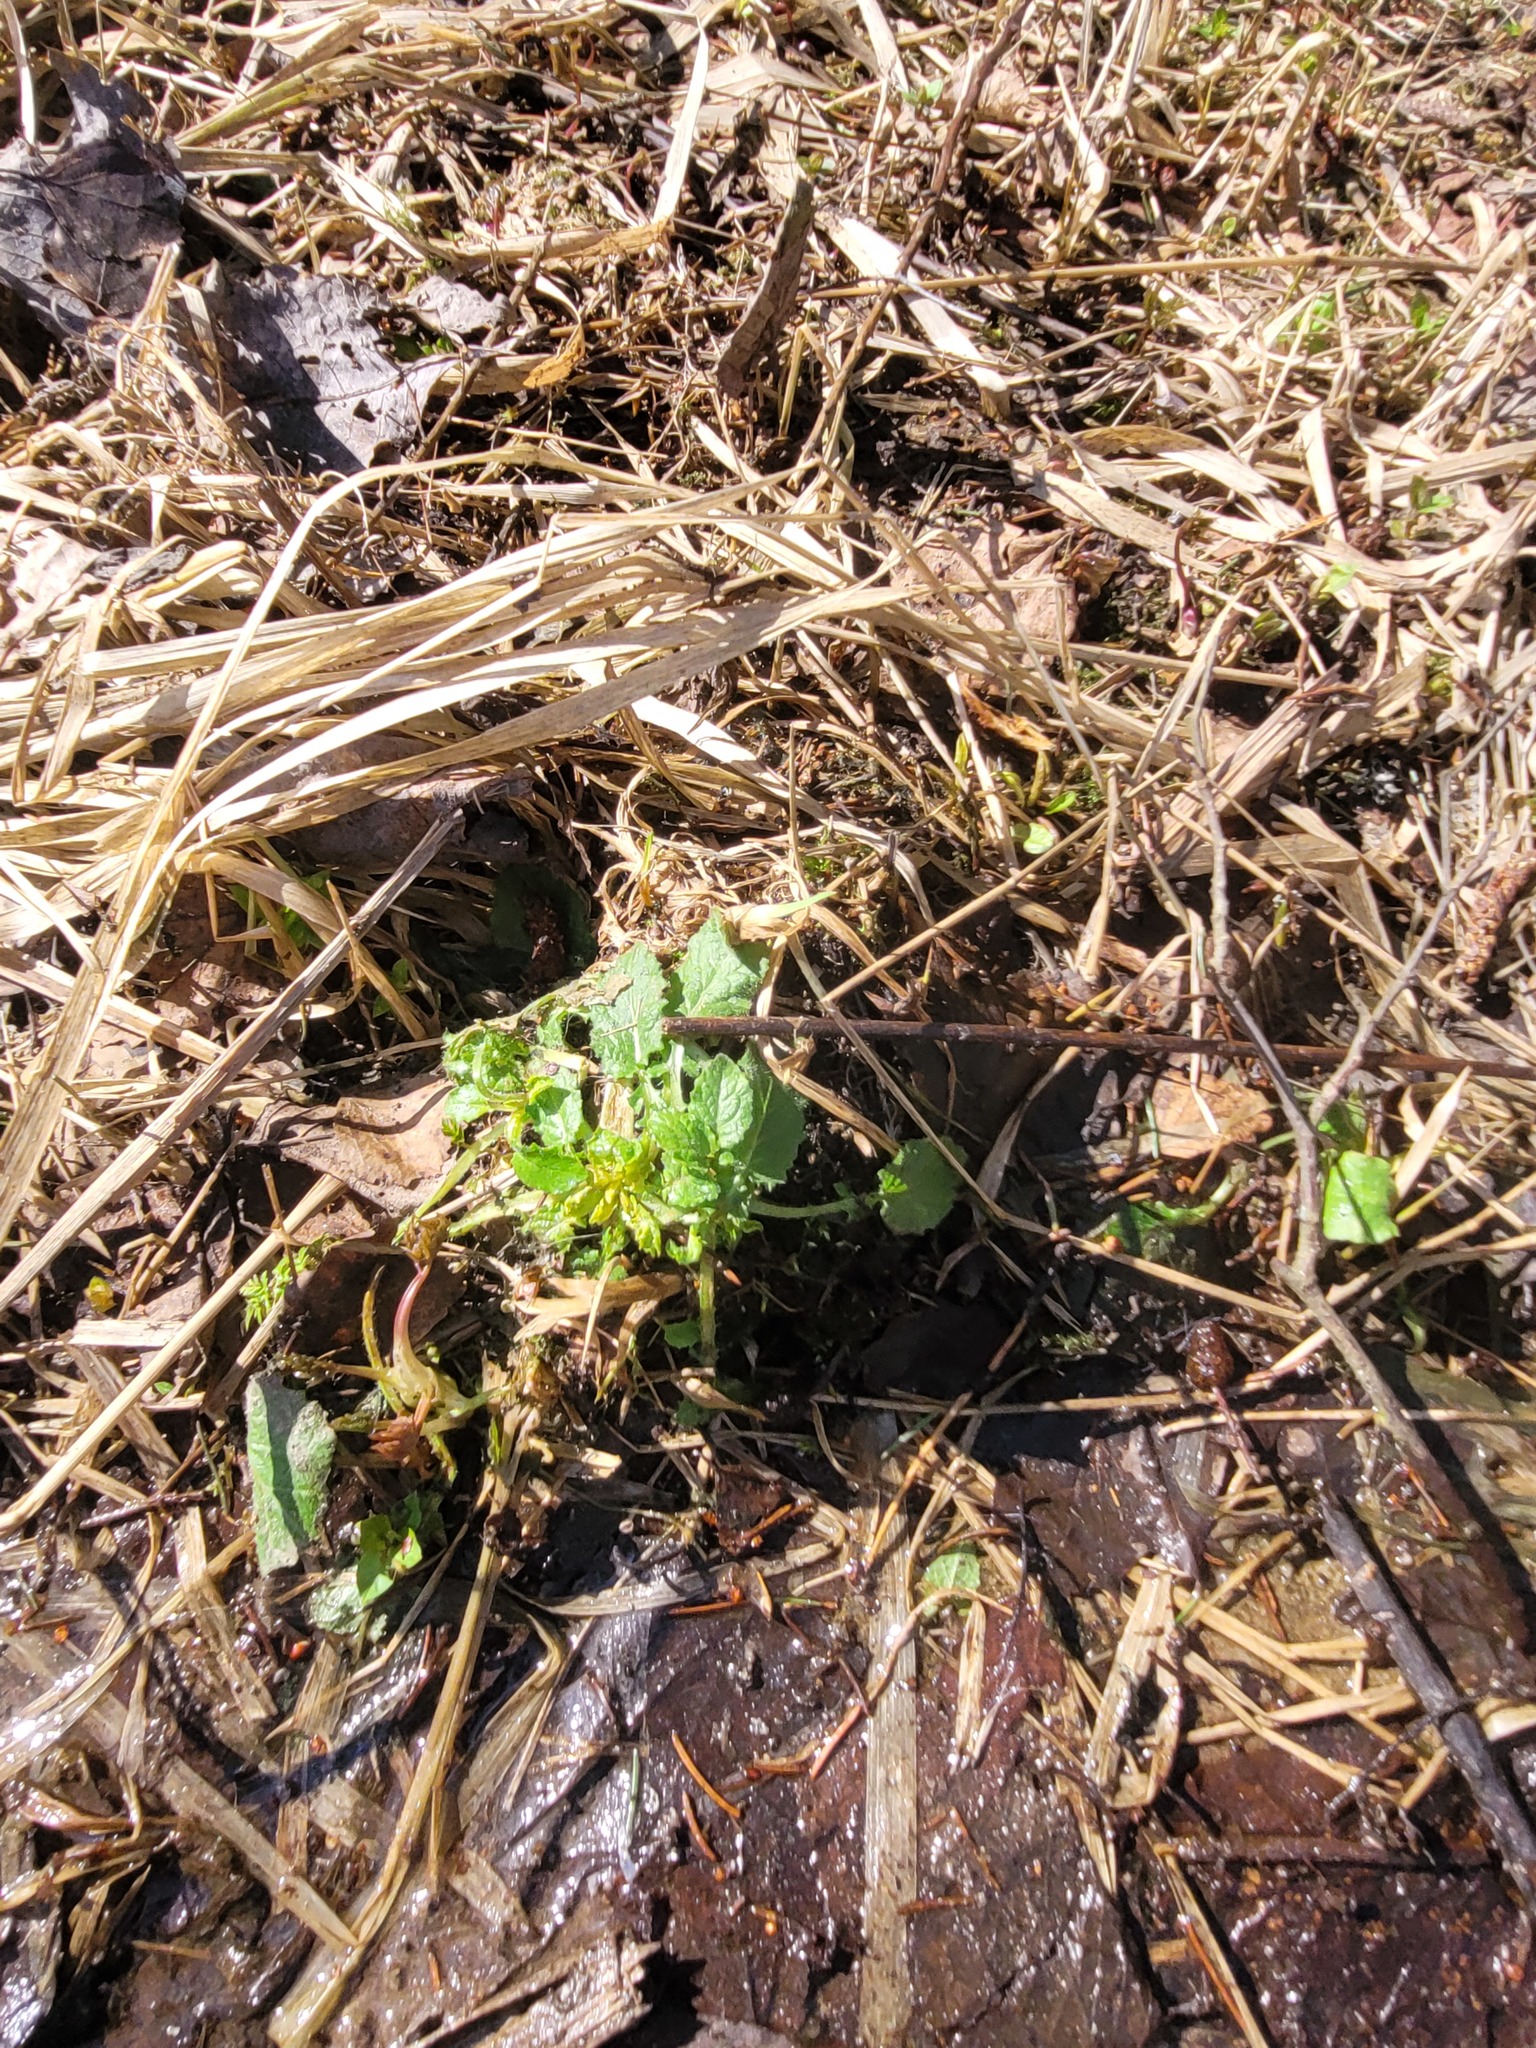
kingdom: Plantae
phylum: Tracheophyta
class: Magnoliopsida
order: Asterales
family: Asteraceae
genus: Lapsana
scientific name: Lapsana communis
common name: Nipplewort
